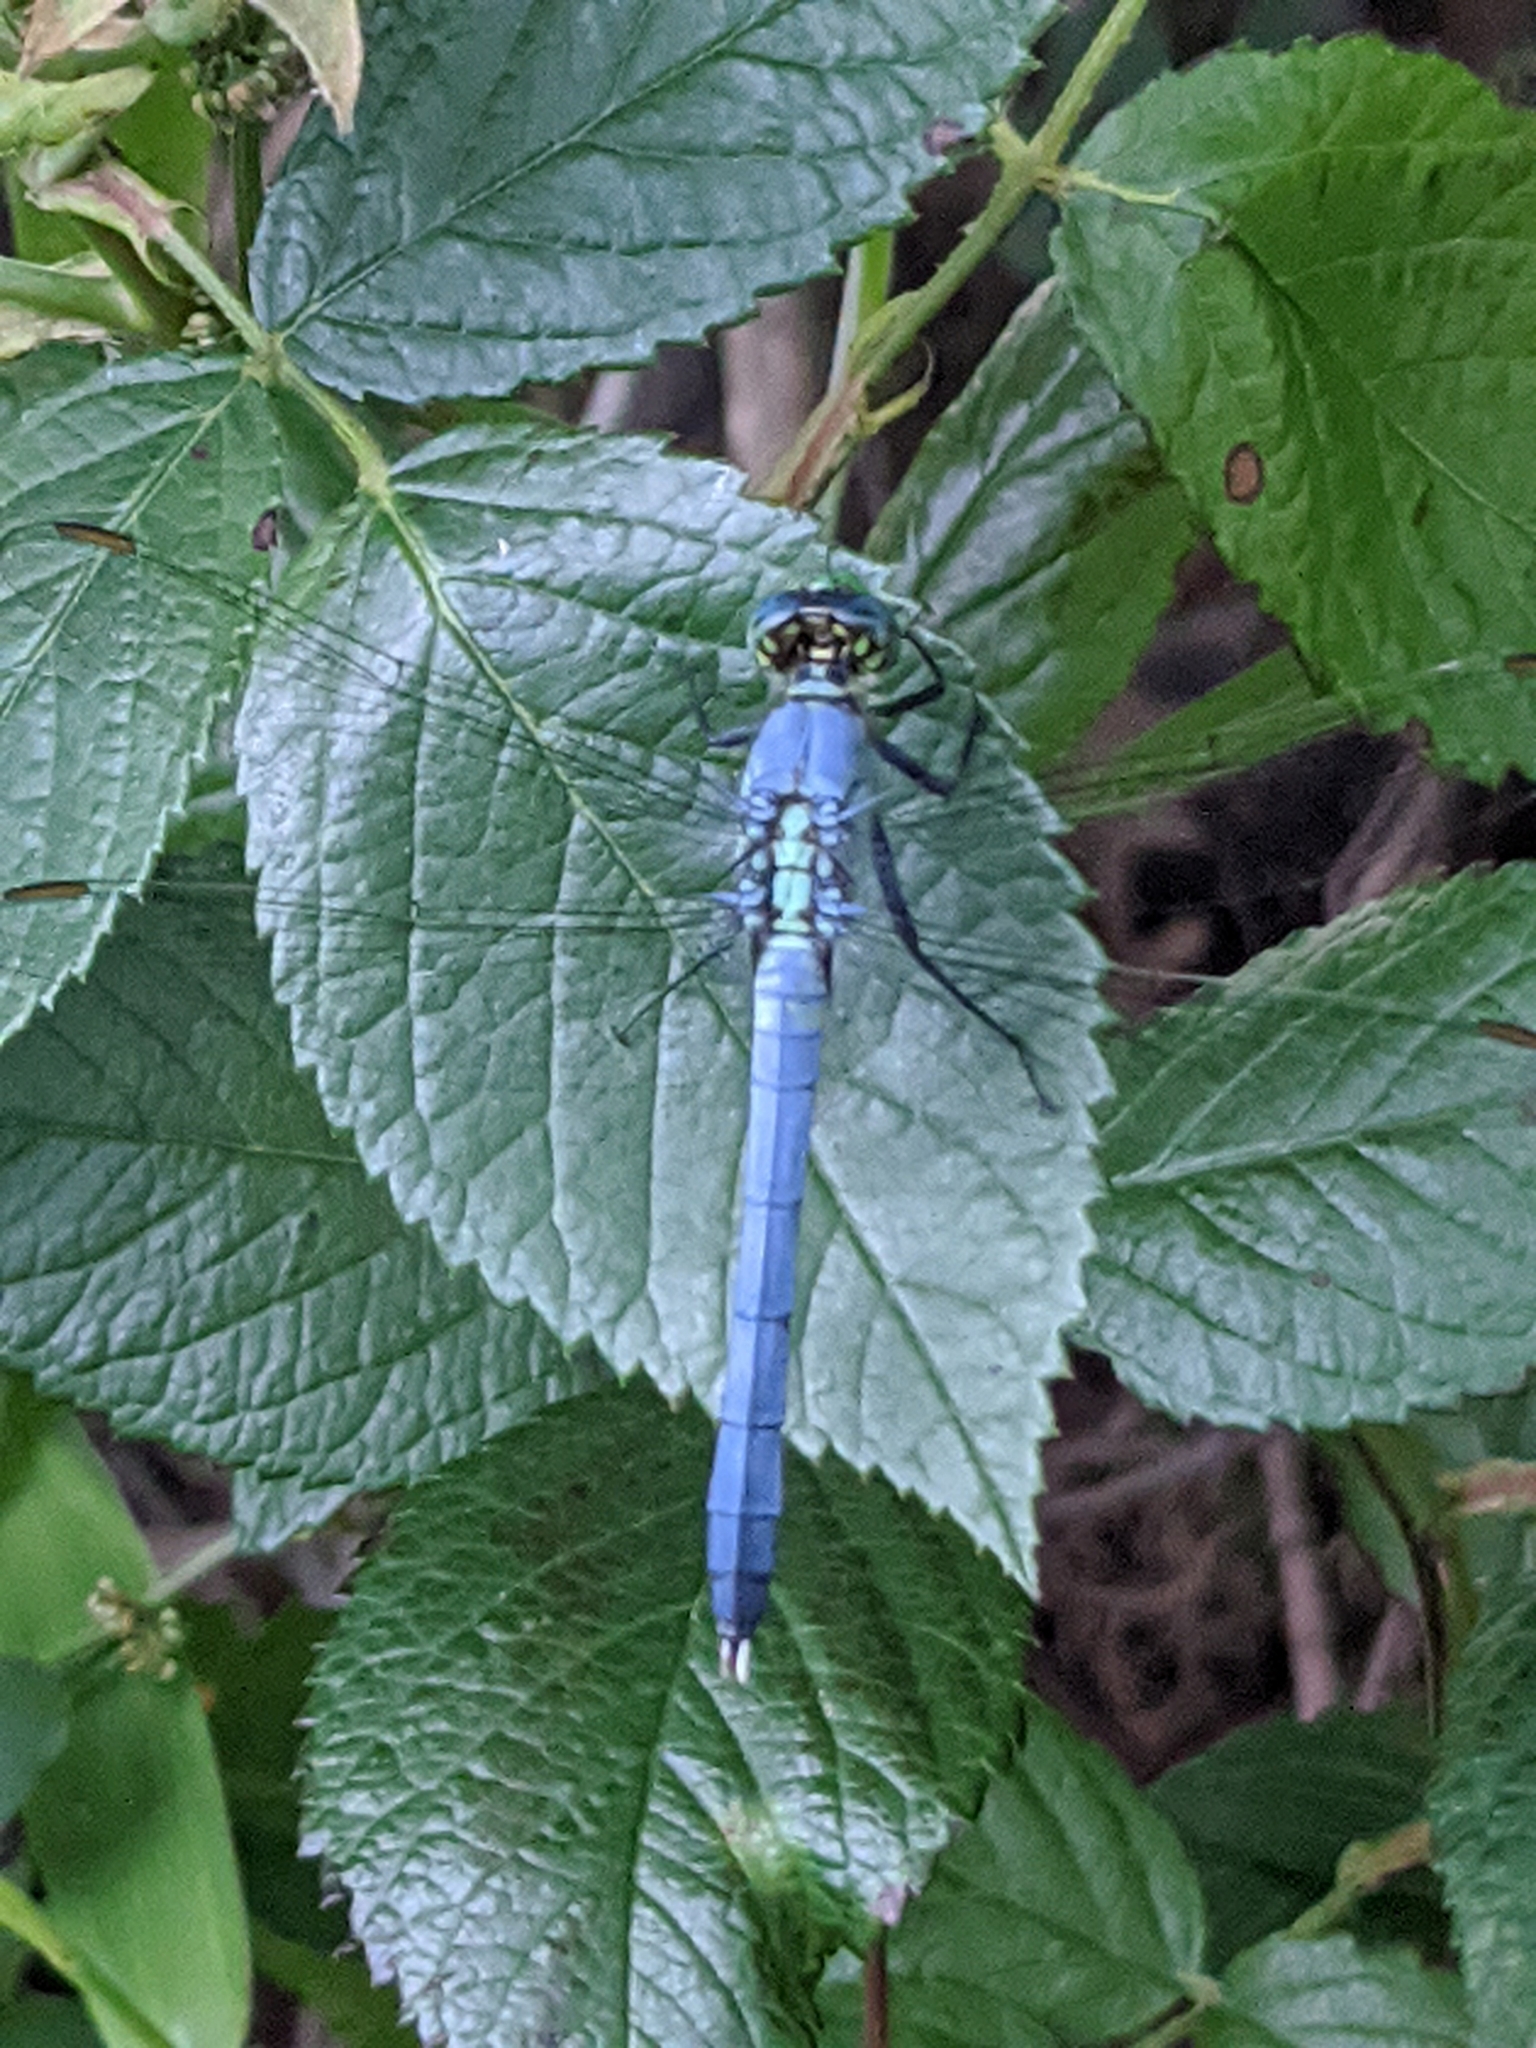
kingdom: Animalia
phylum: Arthropoda
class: Insecta
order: Odonata
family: Libellulidae
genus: Erythemis
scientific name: Erythemis simplicicollis
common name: Eastern pondhawk
